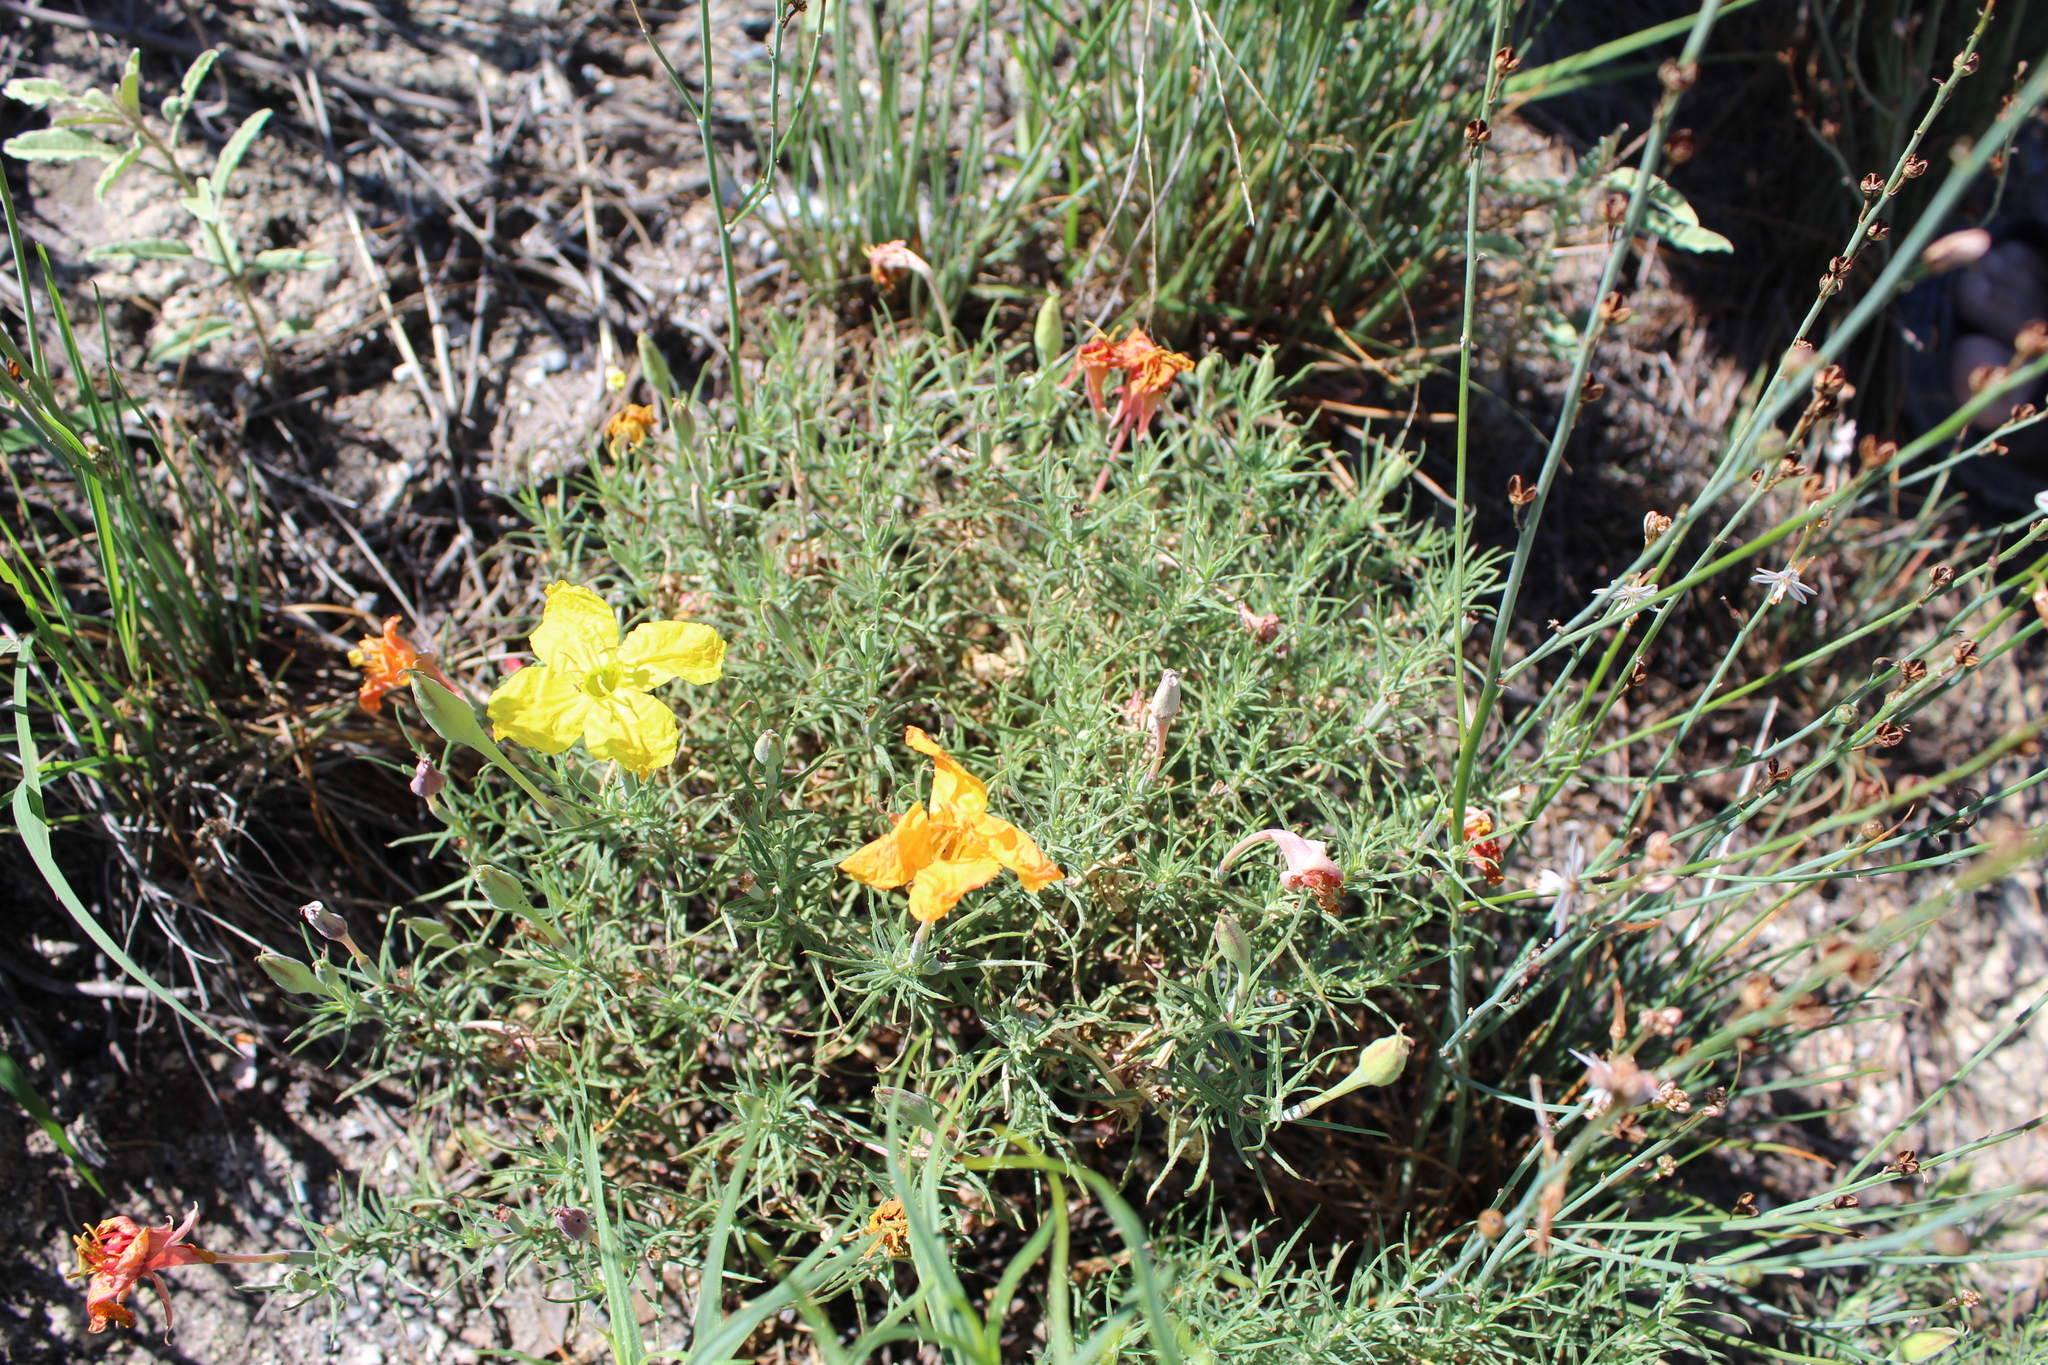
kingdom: Plantae
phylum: Tracheophyta
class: Magnoliopsida
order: Myrtales
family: Onagraceae
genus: Oenothera
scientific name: Oenothera hartwegii
